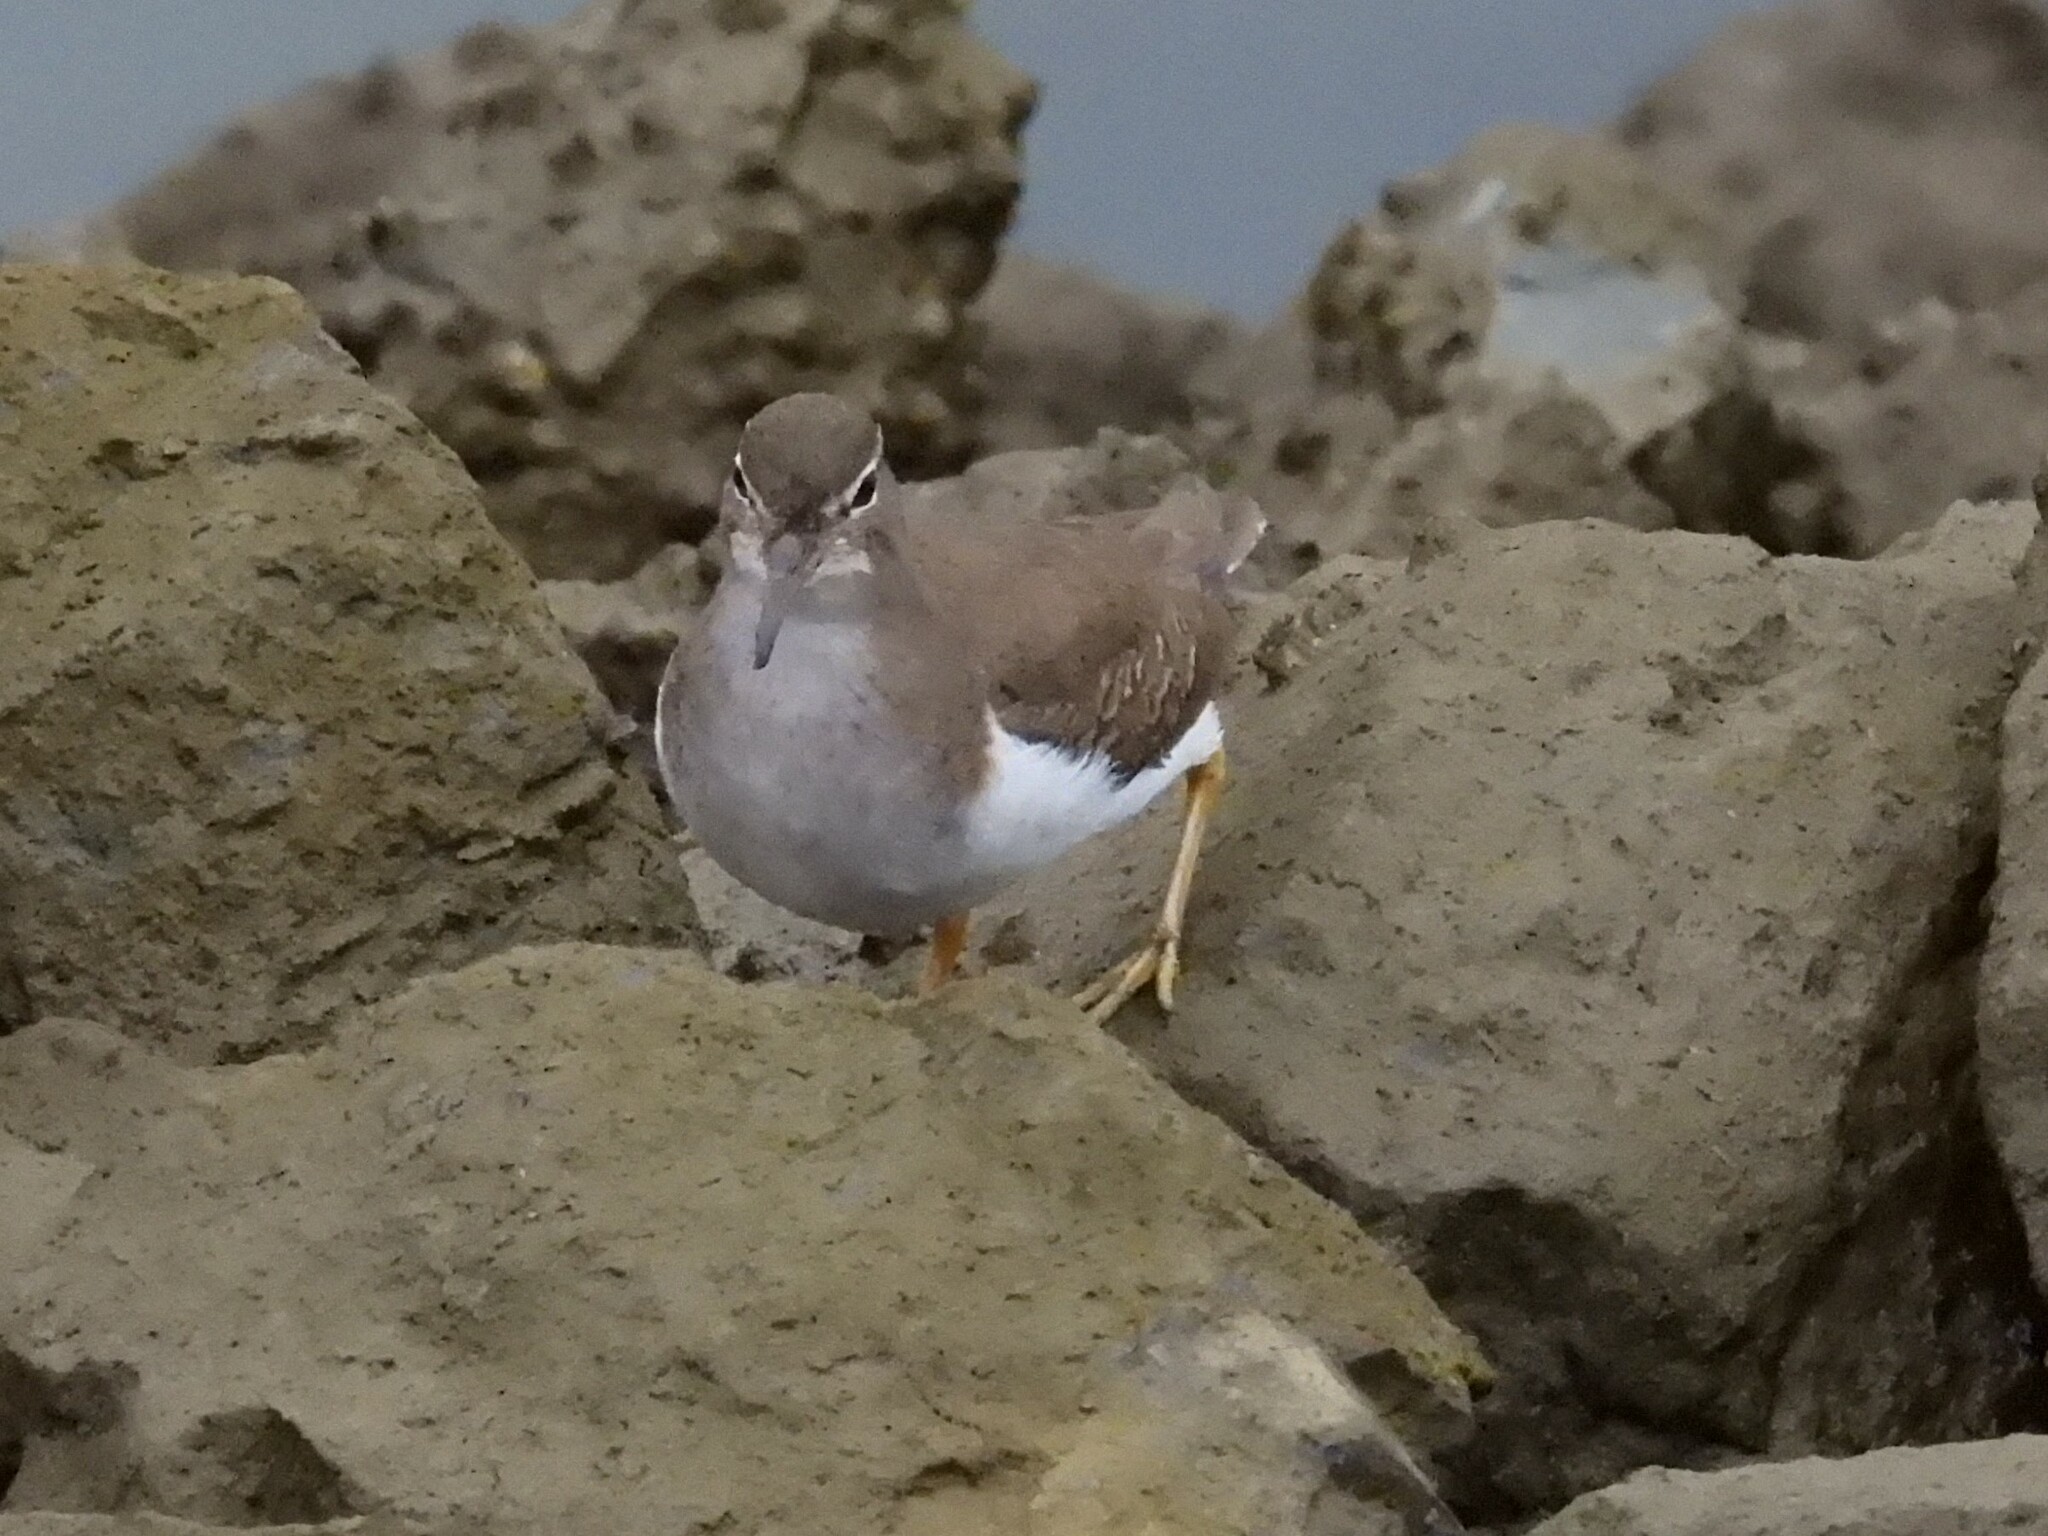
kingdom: Animalia
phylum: Chordata
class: Aves
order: Charadriiformes
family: Scolopacidae
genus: Actitis
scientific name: Actitis macularius
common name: Spotted sandpiper
